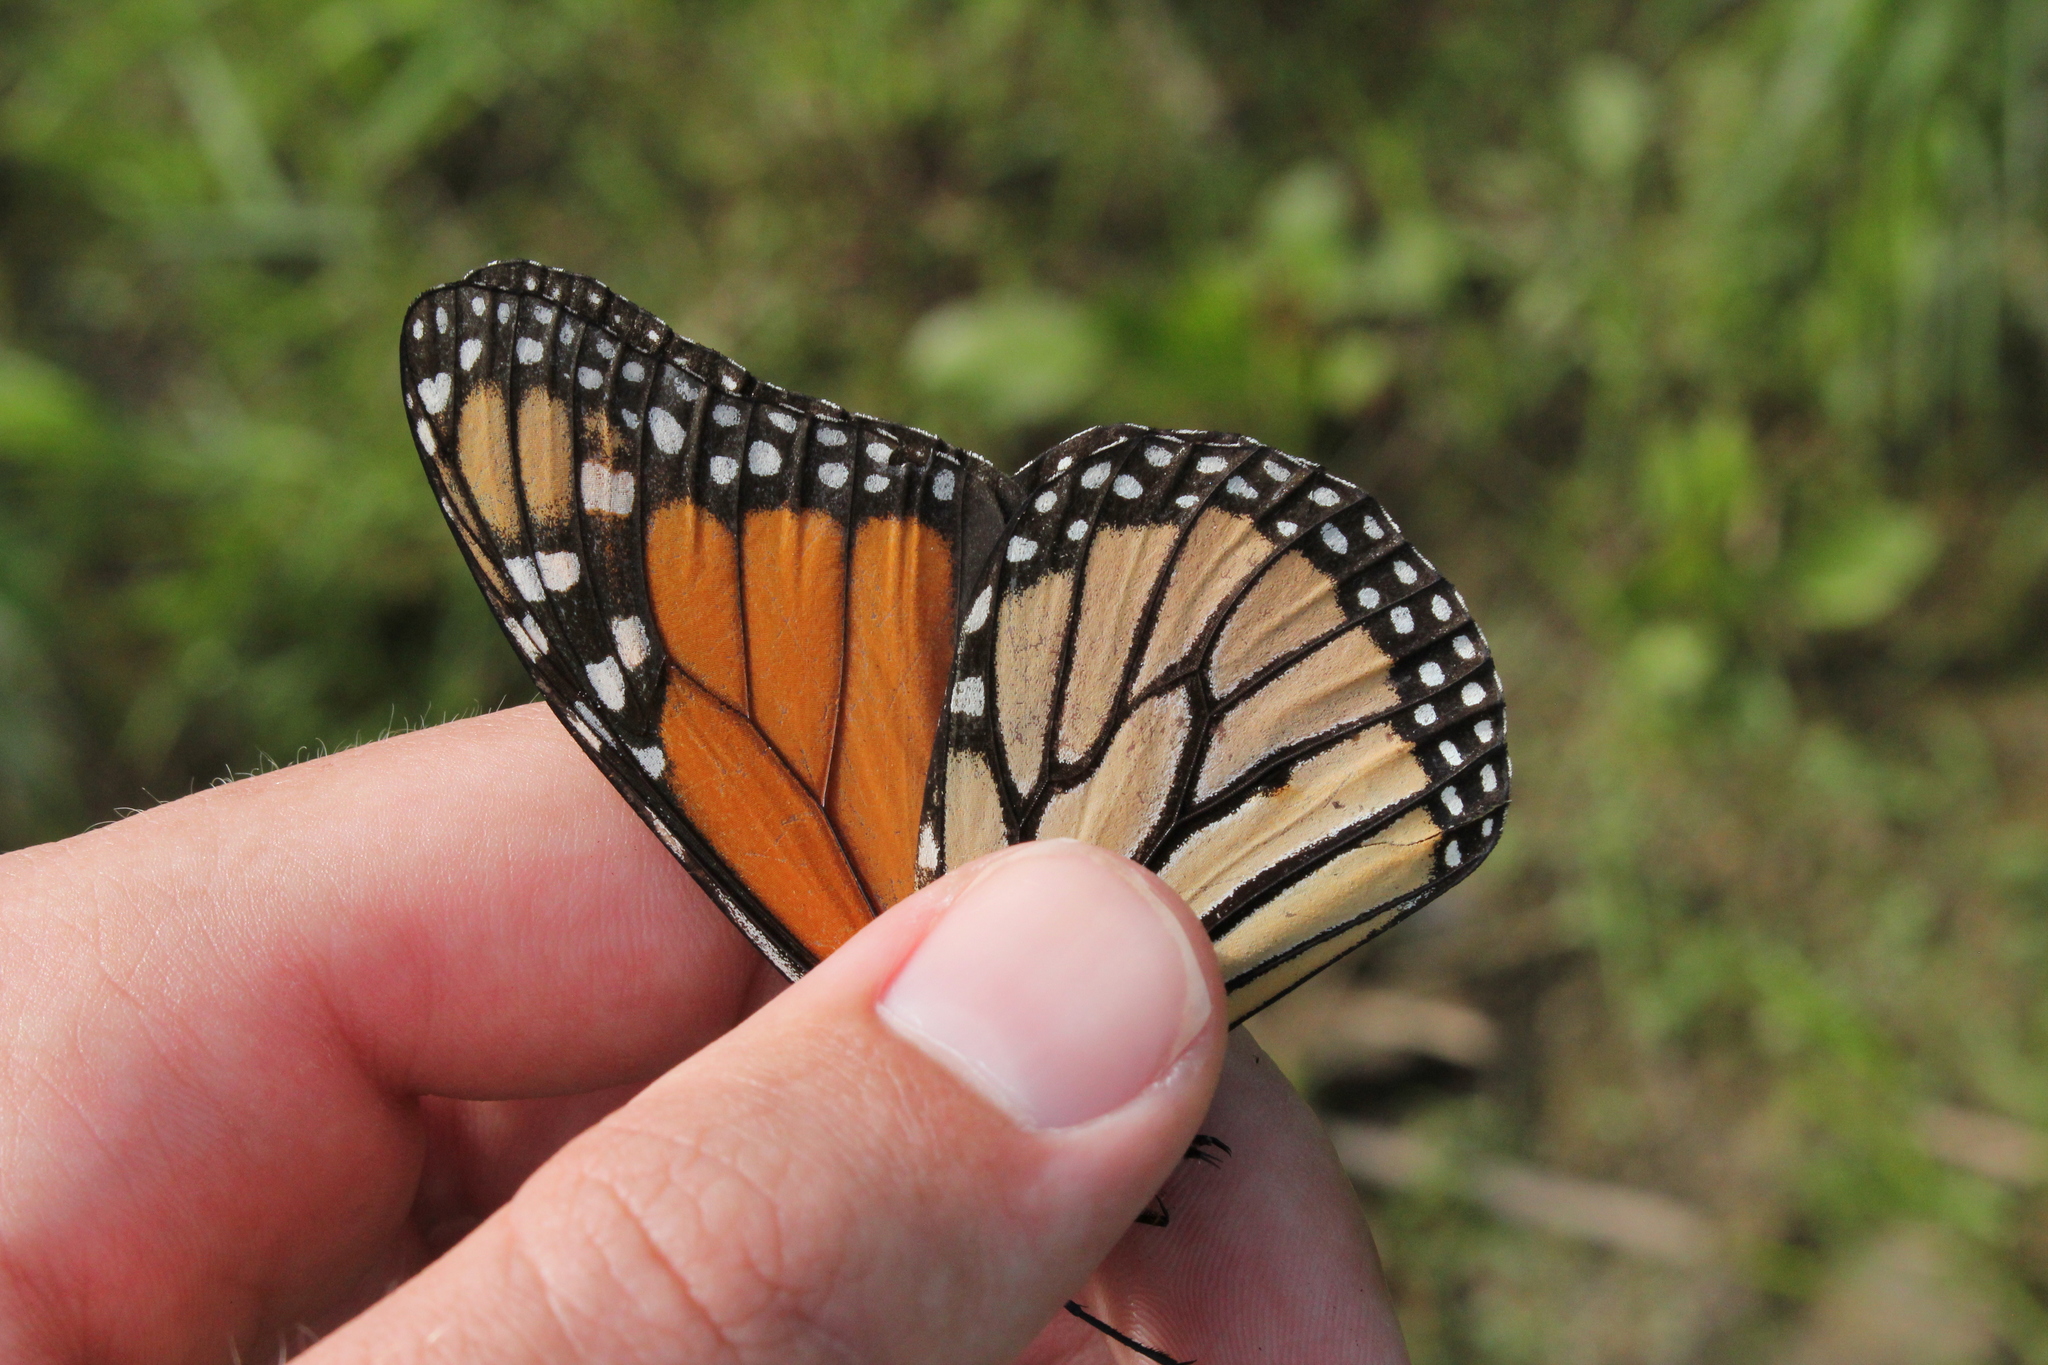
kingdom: Animalia
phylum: Arthropoda
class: Insecta
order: Lepidoptera
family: Nymphalidae
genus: Danaus
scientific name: Danaus plexippus
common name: Monarch
